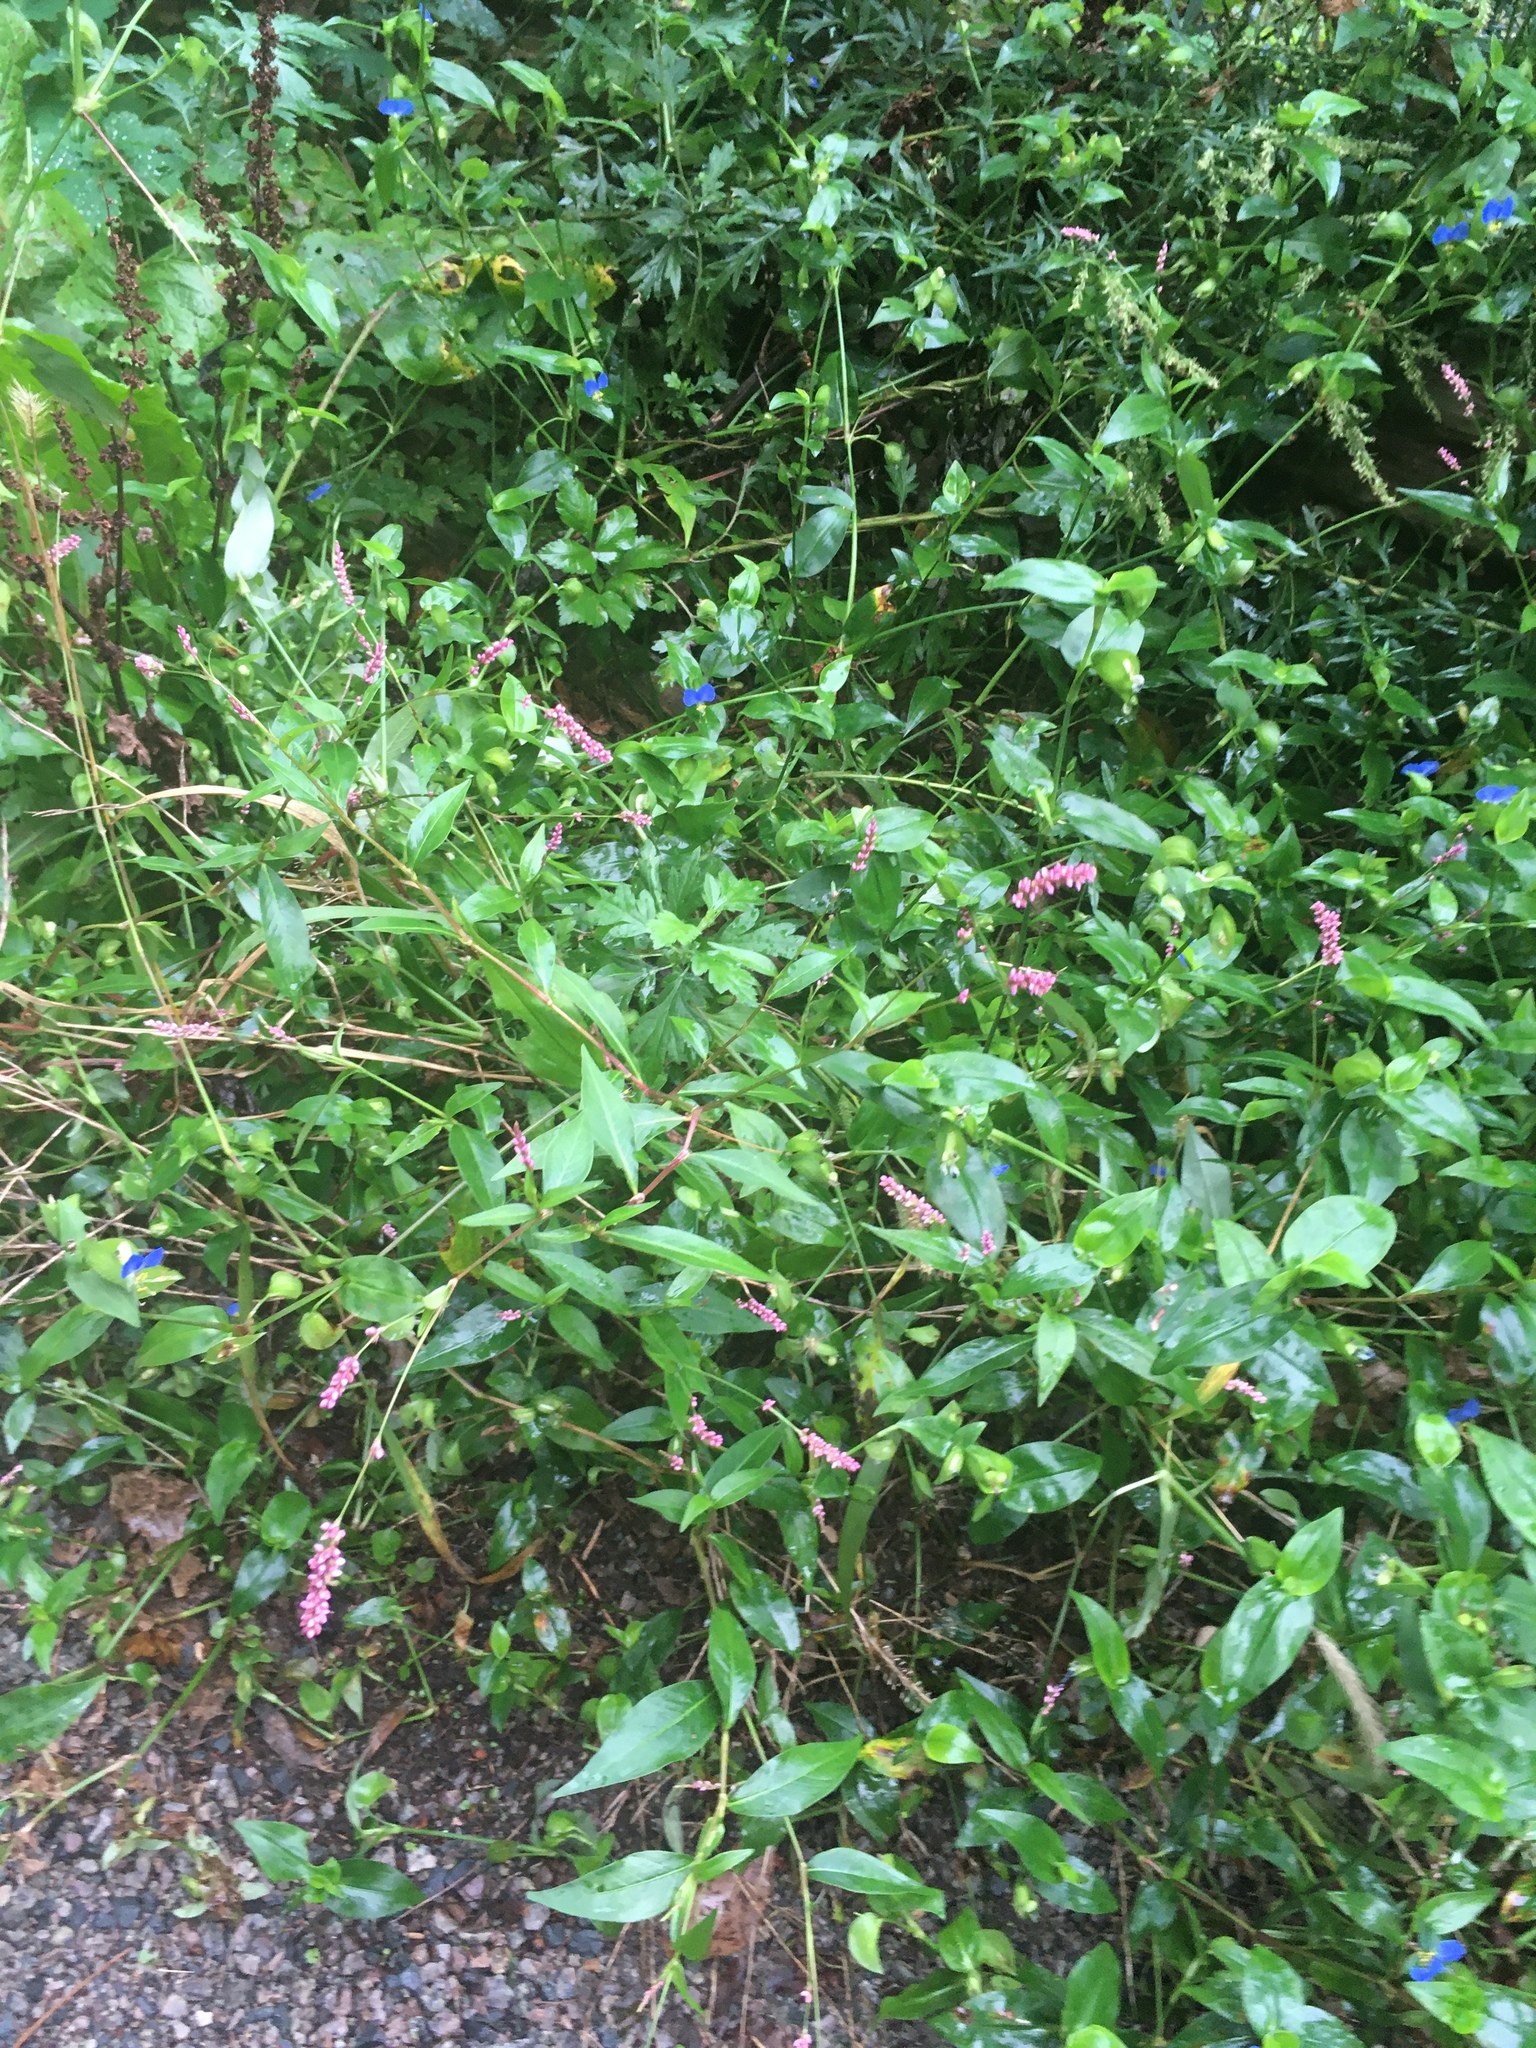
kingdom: Plantae
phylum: Tracheophyta
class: Magnoliopsida
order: Caryophyllales
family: Polygonaceae
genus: Persicaria
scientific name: Persicaria longiseta
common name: Bristly lady's-thumb
